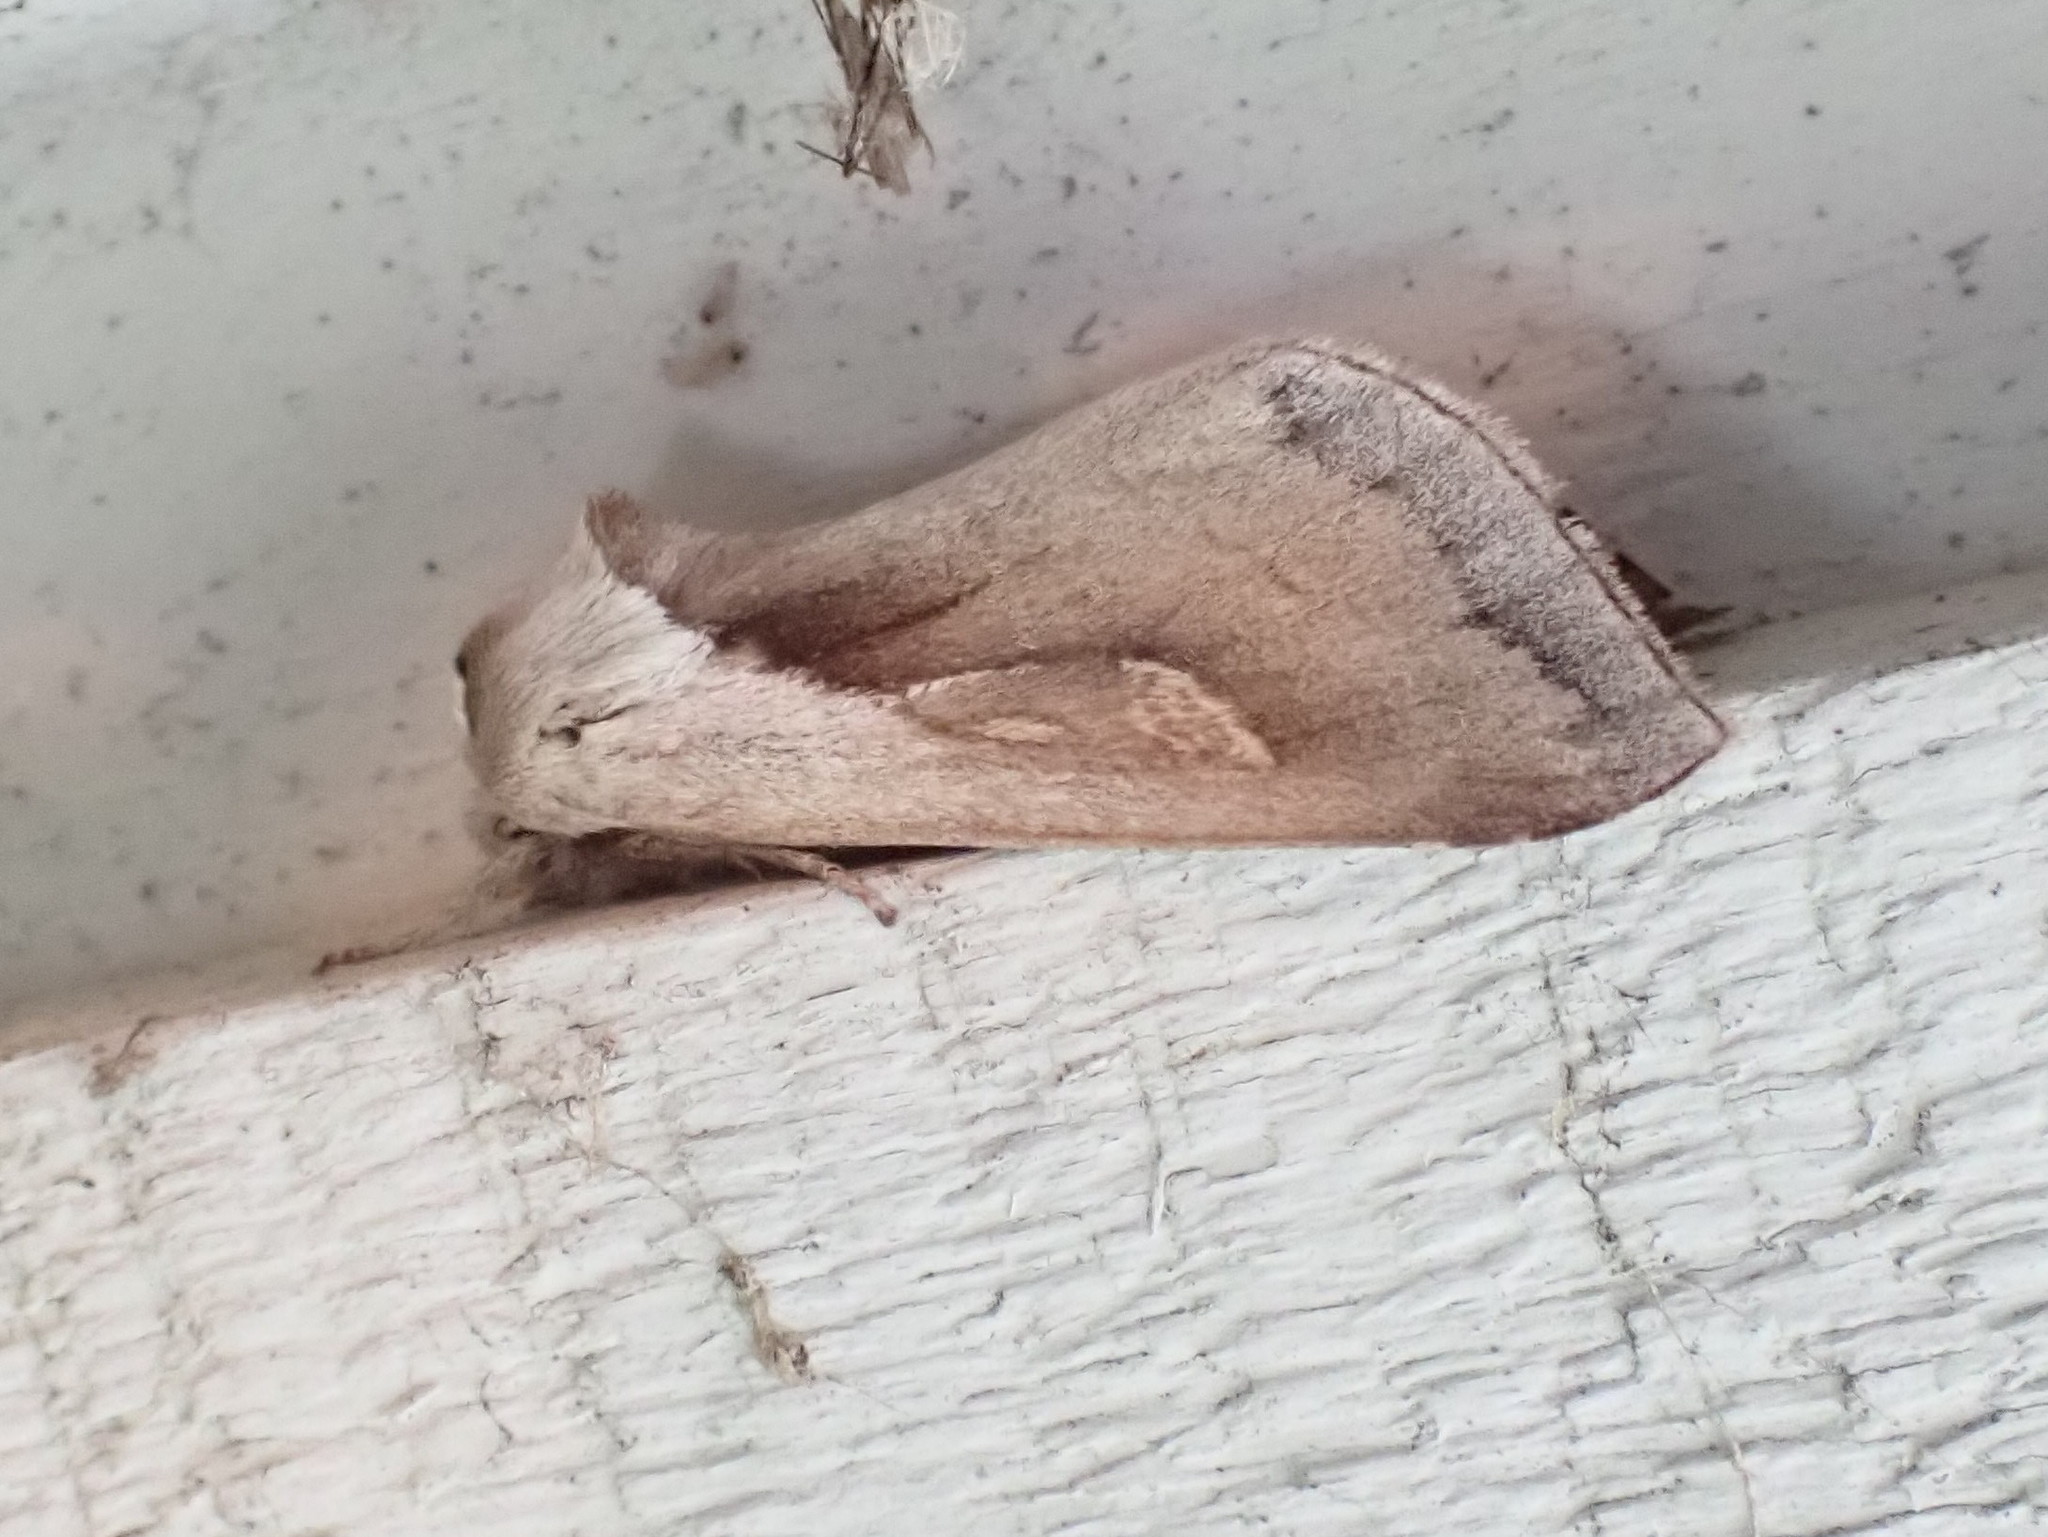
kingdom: Animalia
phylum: Arthropoda
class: Insecta
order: Lepidoptera
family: Noctuidae
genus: Bellura
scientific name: Bellura obliqua
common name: Cattail borer moth
